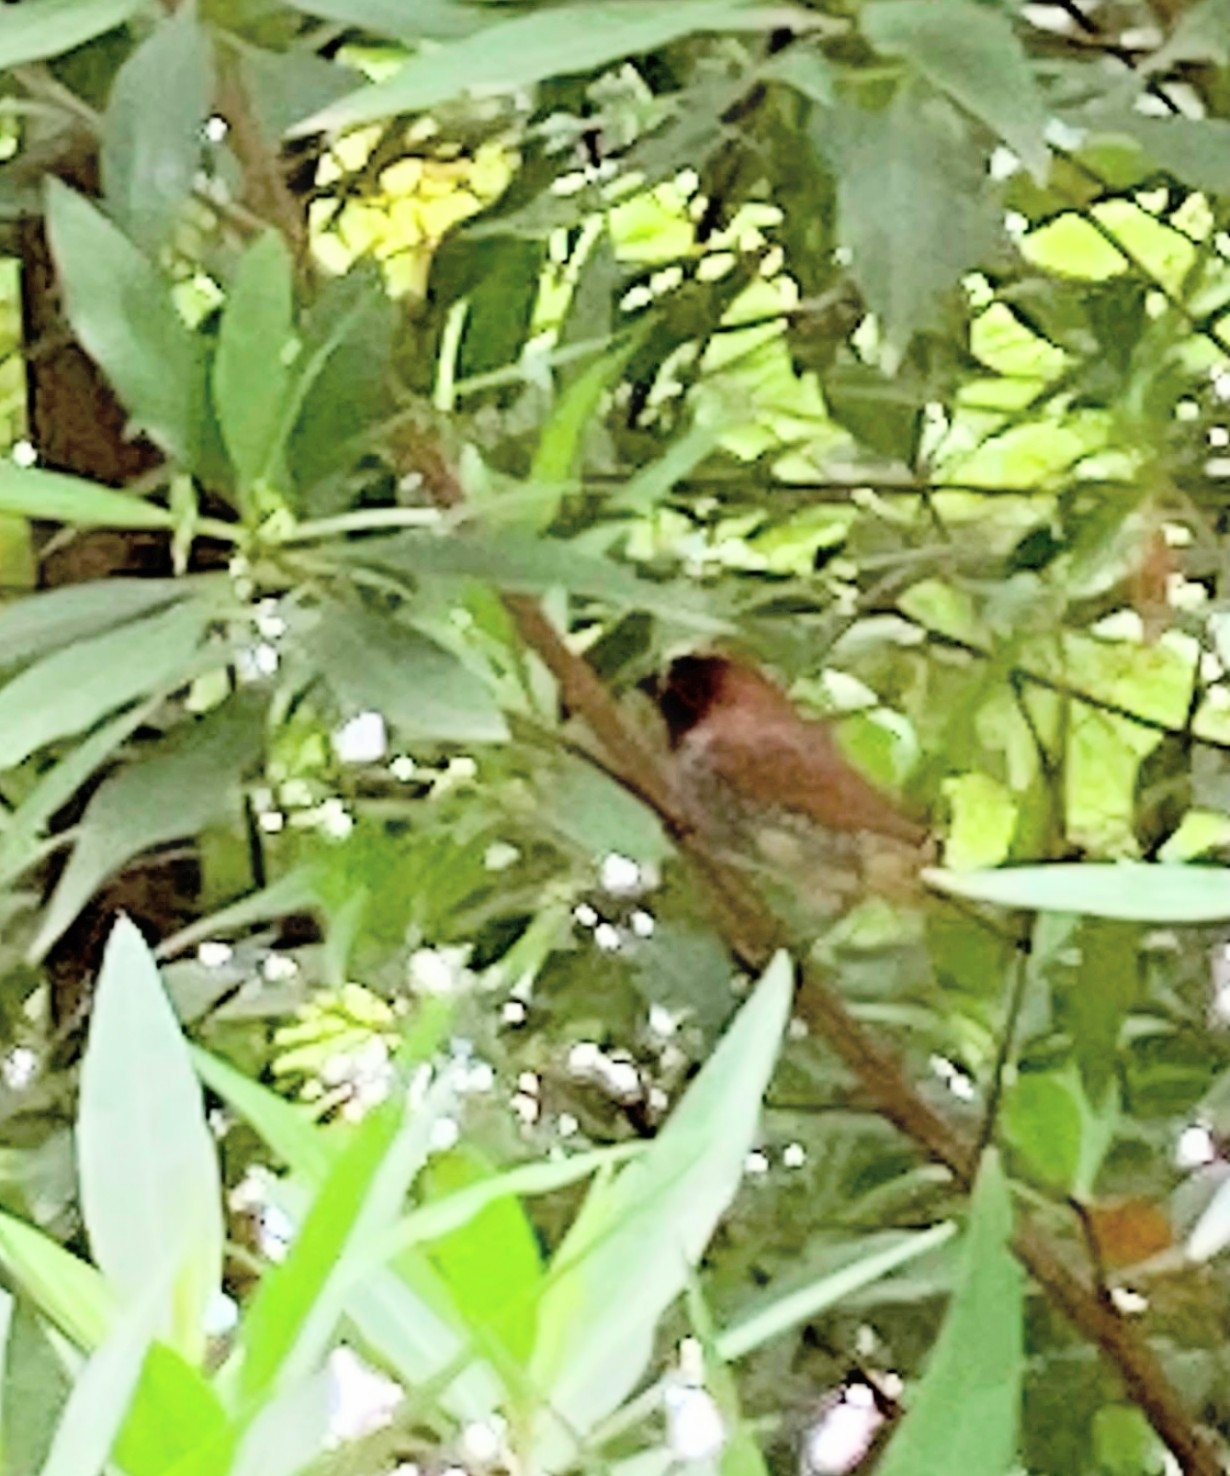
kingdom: Animalia
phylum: Chordata
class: Aves
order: Passeriformes
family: Estrildidae
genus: Lonchura
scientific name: Lonchura punctulata
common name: Scaly-breasted munia
